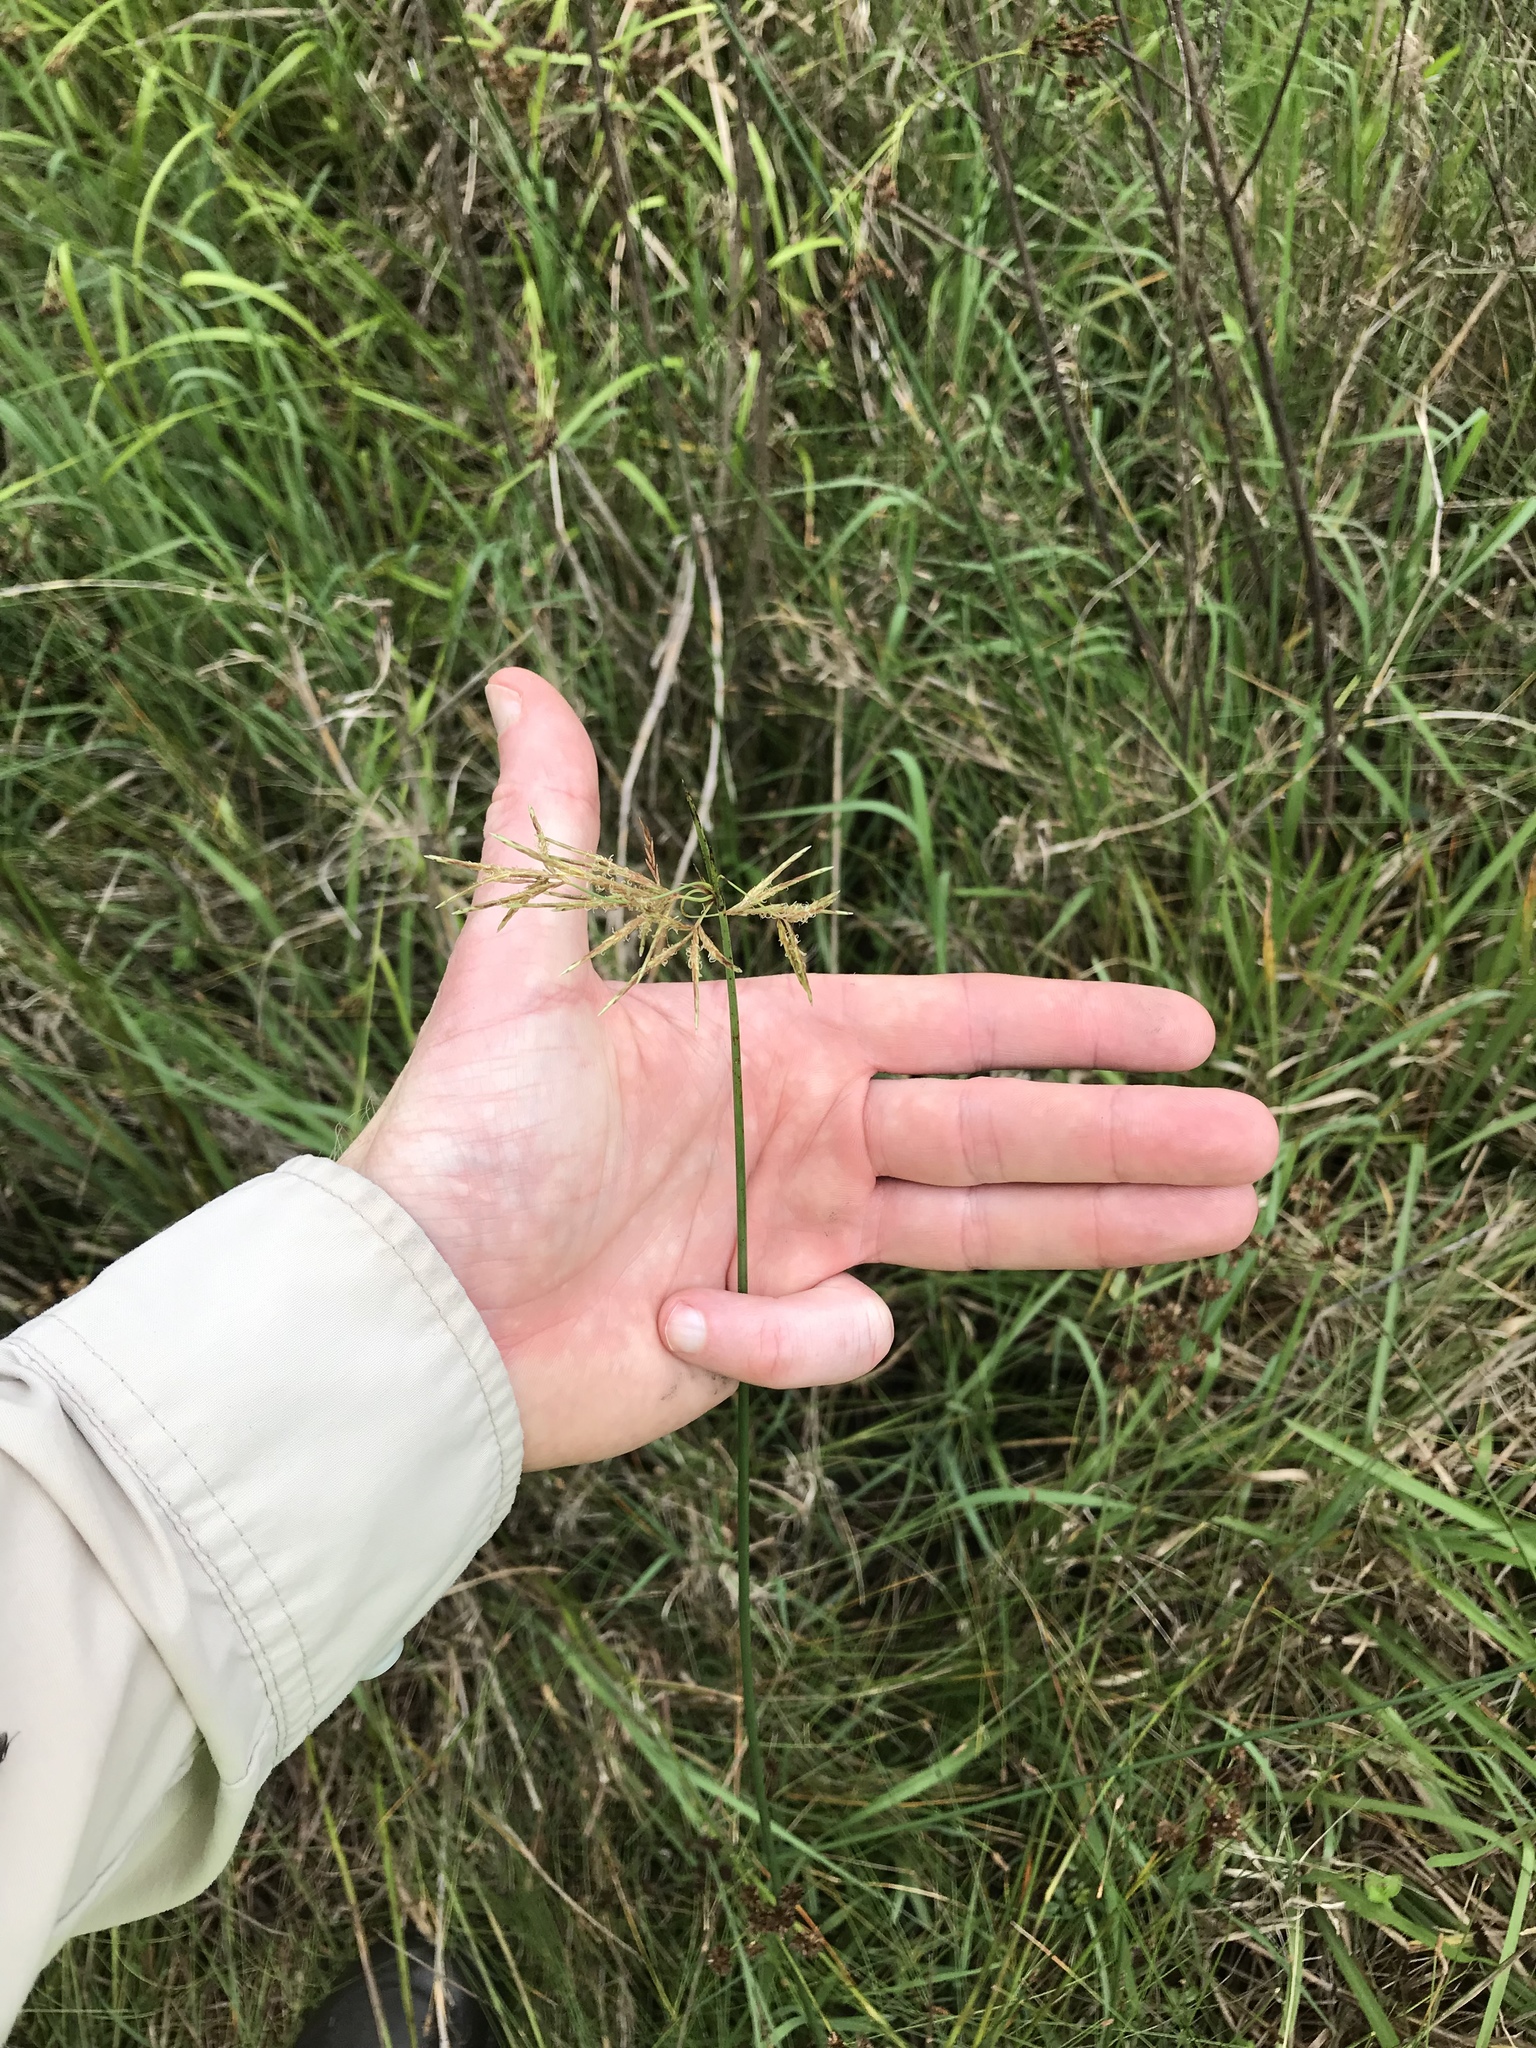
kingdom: Plantae
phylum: Tracheophyta
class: Liliopsida
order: Poales
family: Cyperaceae
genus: Cyperus
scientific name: Cyperus articulatus
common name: Jointed flatsedge
